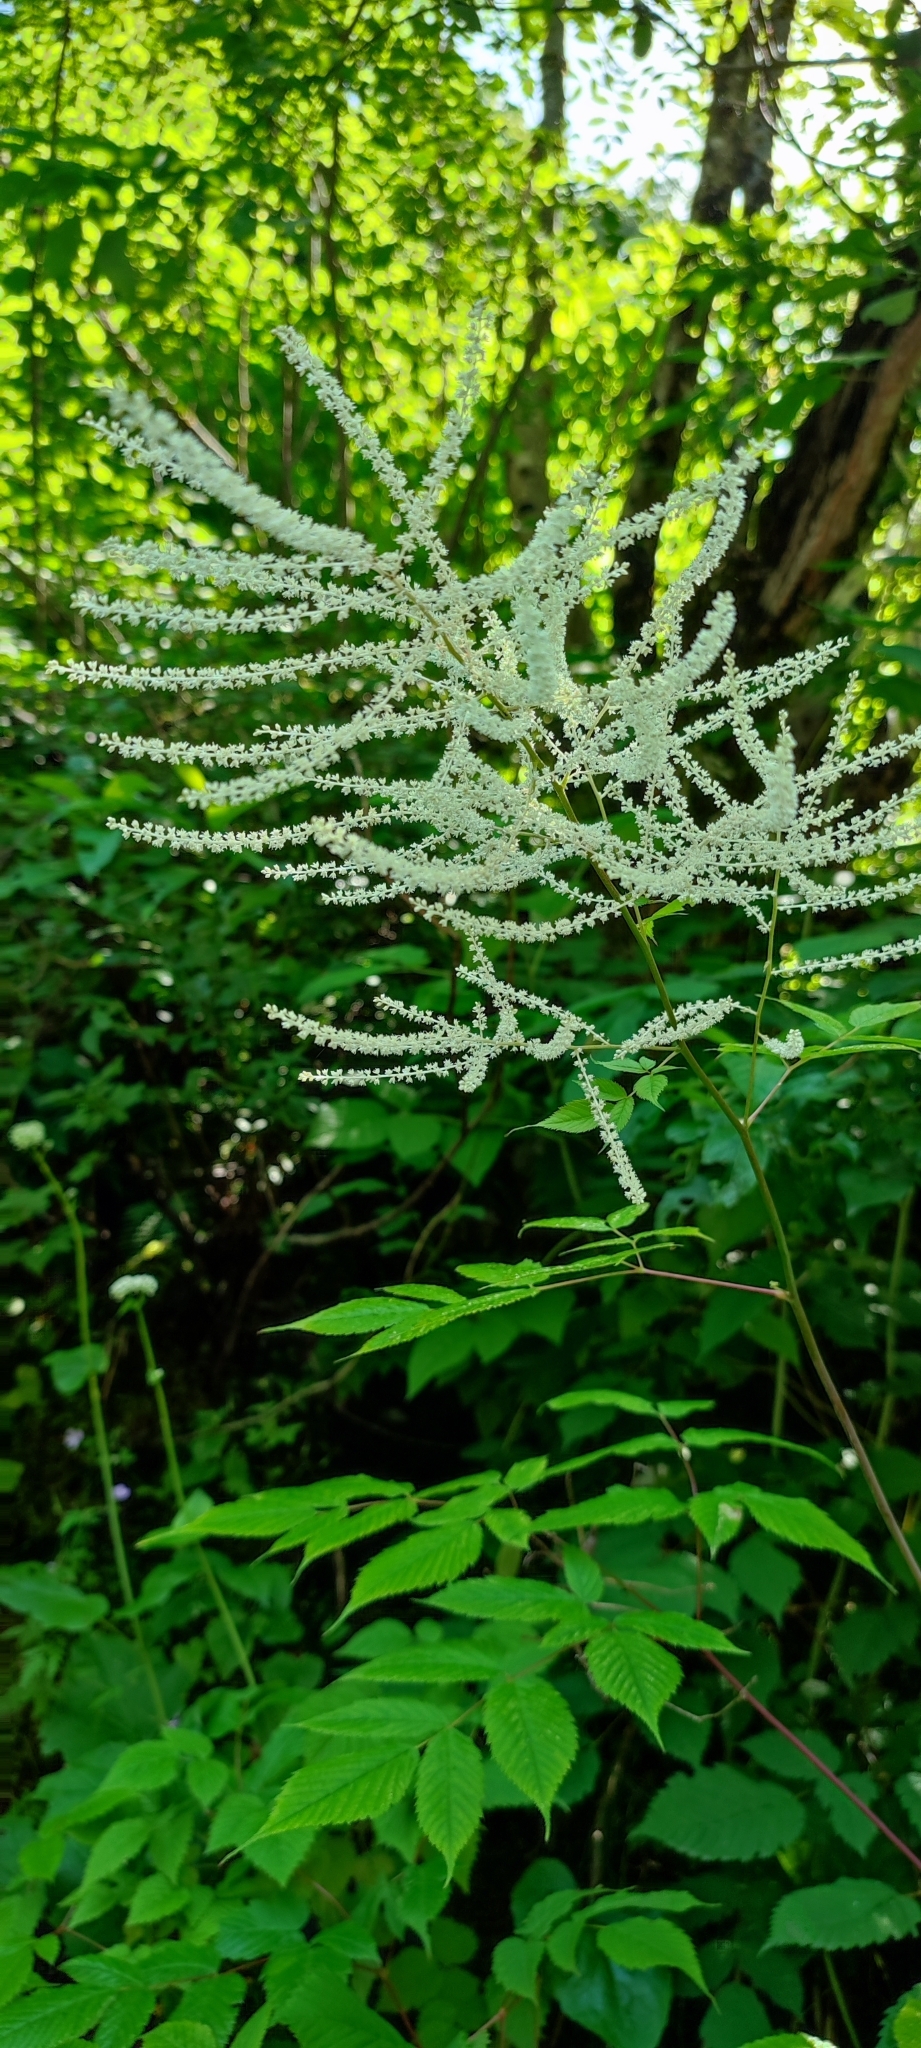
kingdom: Plantae
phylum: Tracheophyta
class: Magnoliopsida
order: Rosales
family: Rosaceae
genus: Aruncus
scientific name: Aruncus dioicus
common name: Buck's-beard
